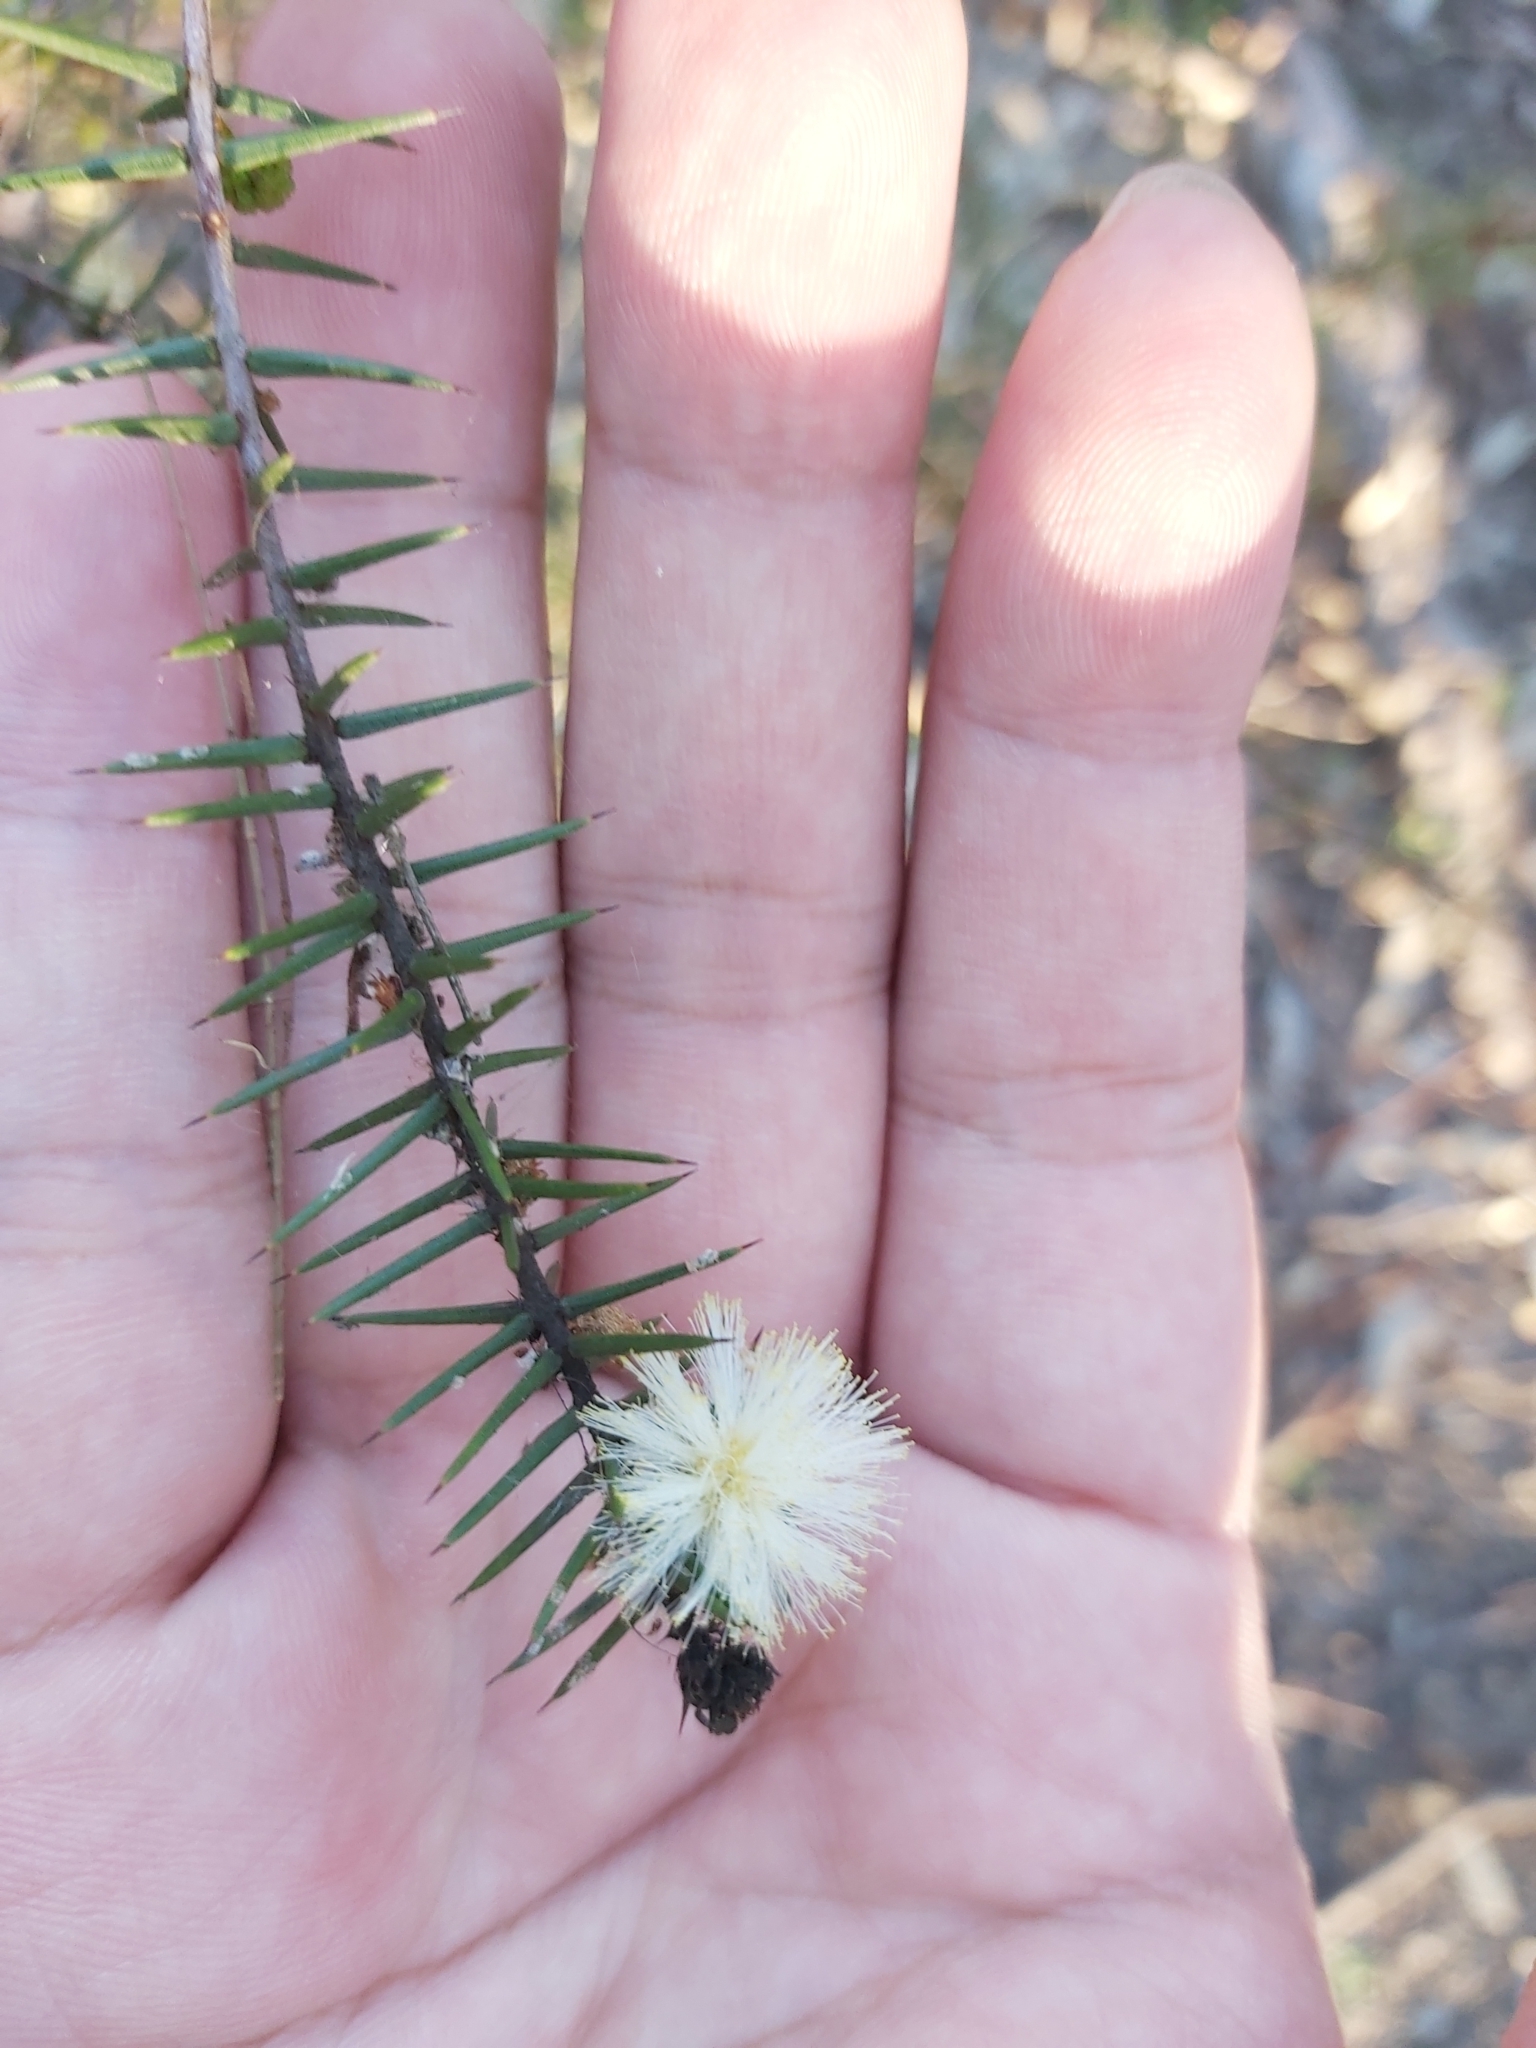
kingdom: Plantae
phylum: Tracheophyta
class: Magnoliopsida
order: Fabales
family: Fabaceae
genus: Acacia
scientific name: Acacia ulicifolia
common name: Juniper wattle
